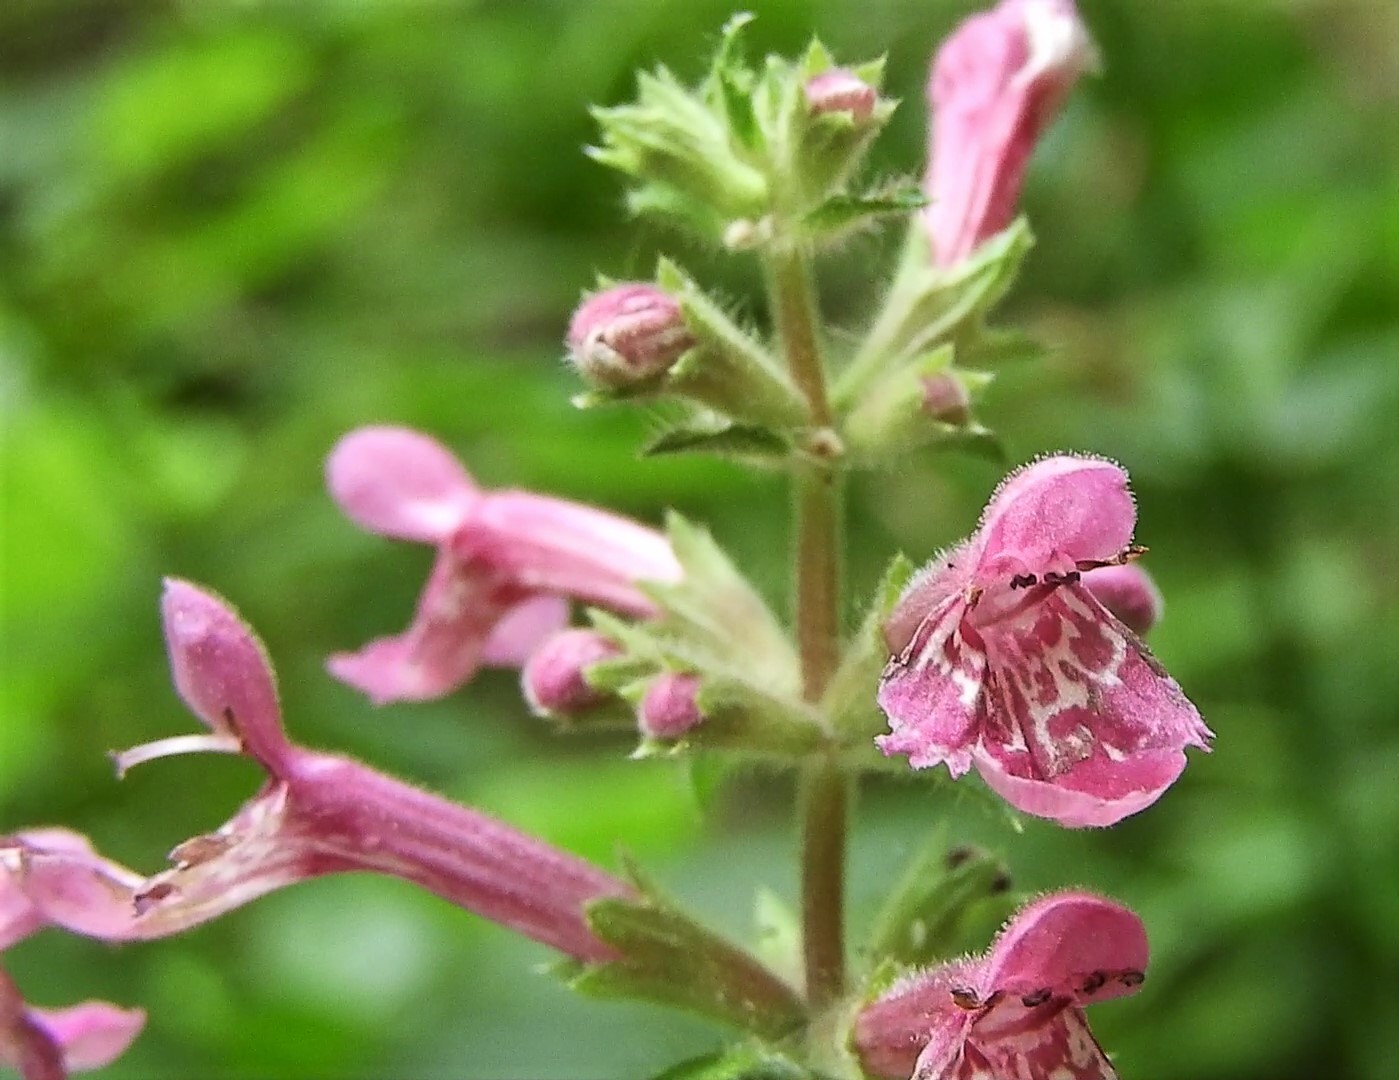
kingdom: Plantae
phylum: Tracheophyta
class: Magnoliopsida
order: Lamiales
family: Lamiaceae
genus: Stachys
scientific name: Stachys chamissonis
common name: Coastal hedge-nettle
